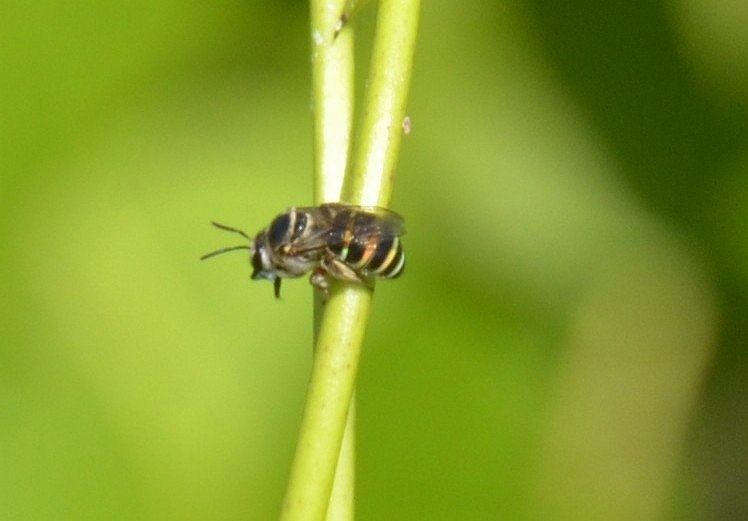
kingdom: Animalia
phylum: Arthropoda
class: Insecta
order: Hymenoptera
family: Halictidae
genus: Nomia
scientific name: Nomia westwoodi
